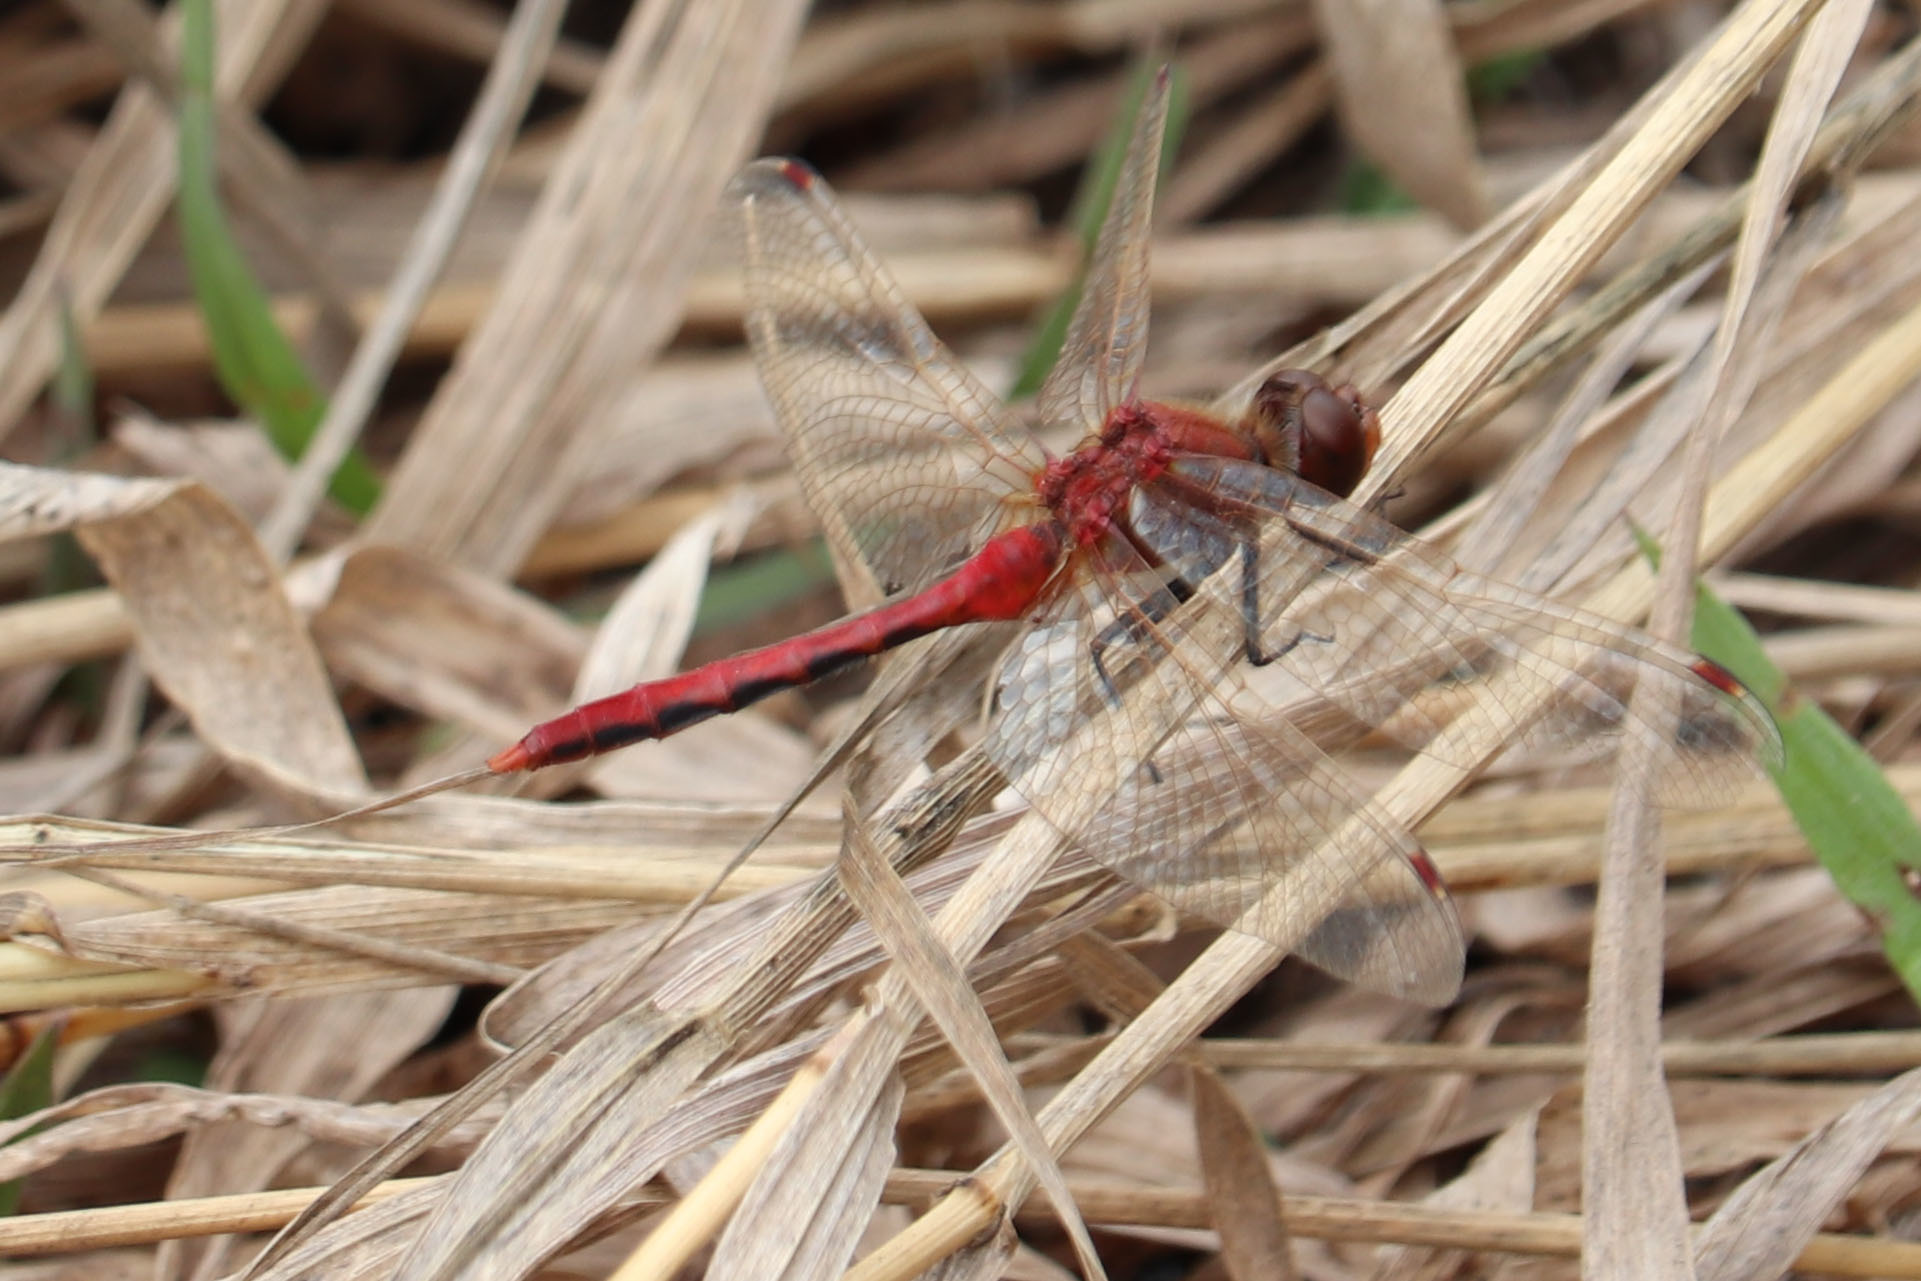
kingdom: Animalia
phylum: Arthropoda
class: Insecta
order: Odonata
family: Libellulidae
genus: Sympetrum
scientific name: Sympetrum internum
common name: Cherry-faced meadowhawk
